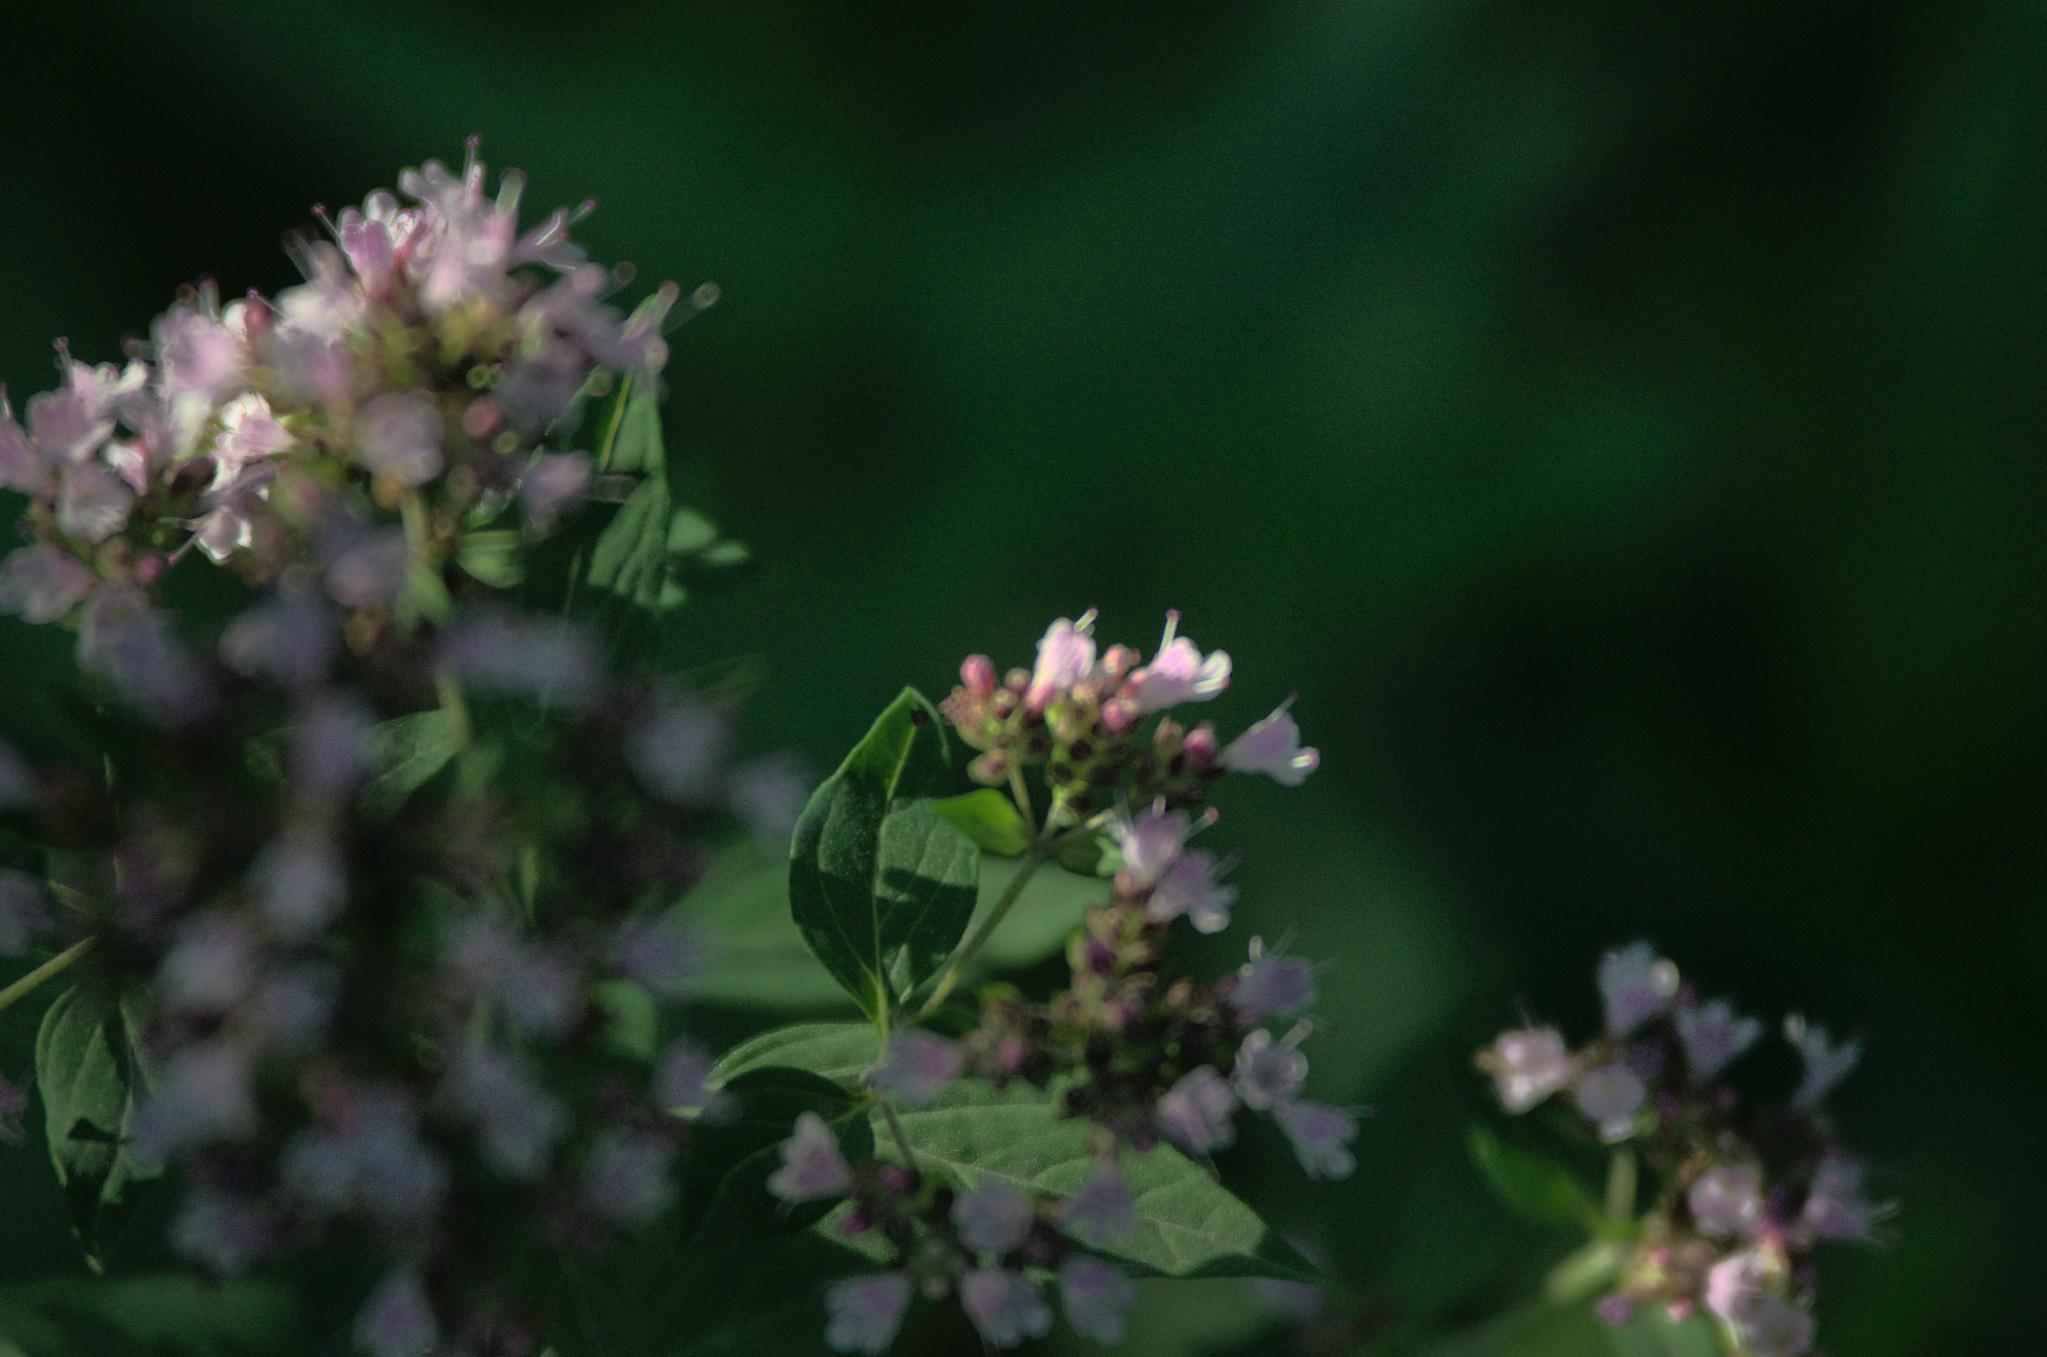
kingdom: Plantae
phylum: Tracheophyta
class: Magnoliopsida
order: Lamiales
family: Lamiaceae
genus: Origanum
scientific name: Origanum vulgare
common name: Wild marjoram
